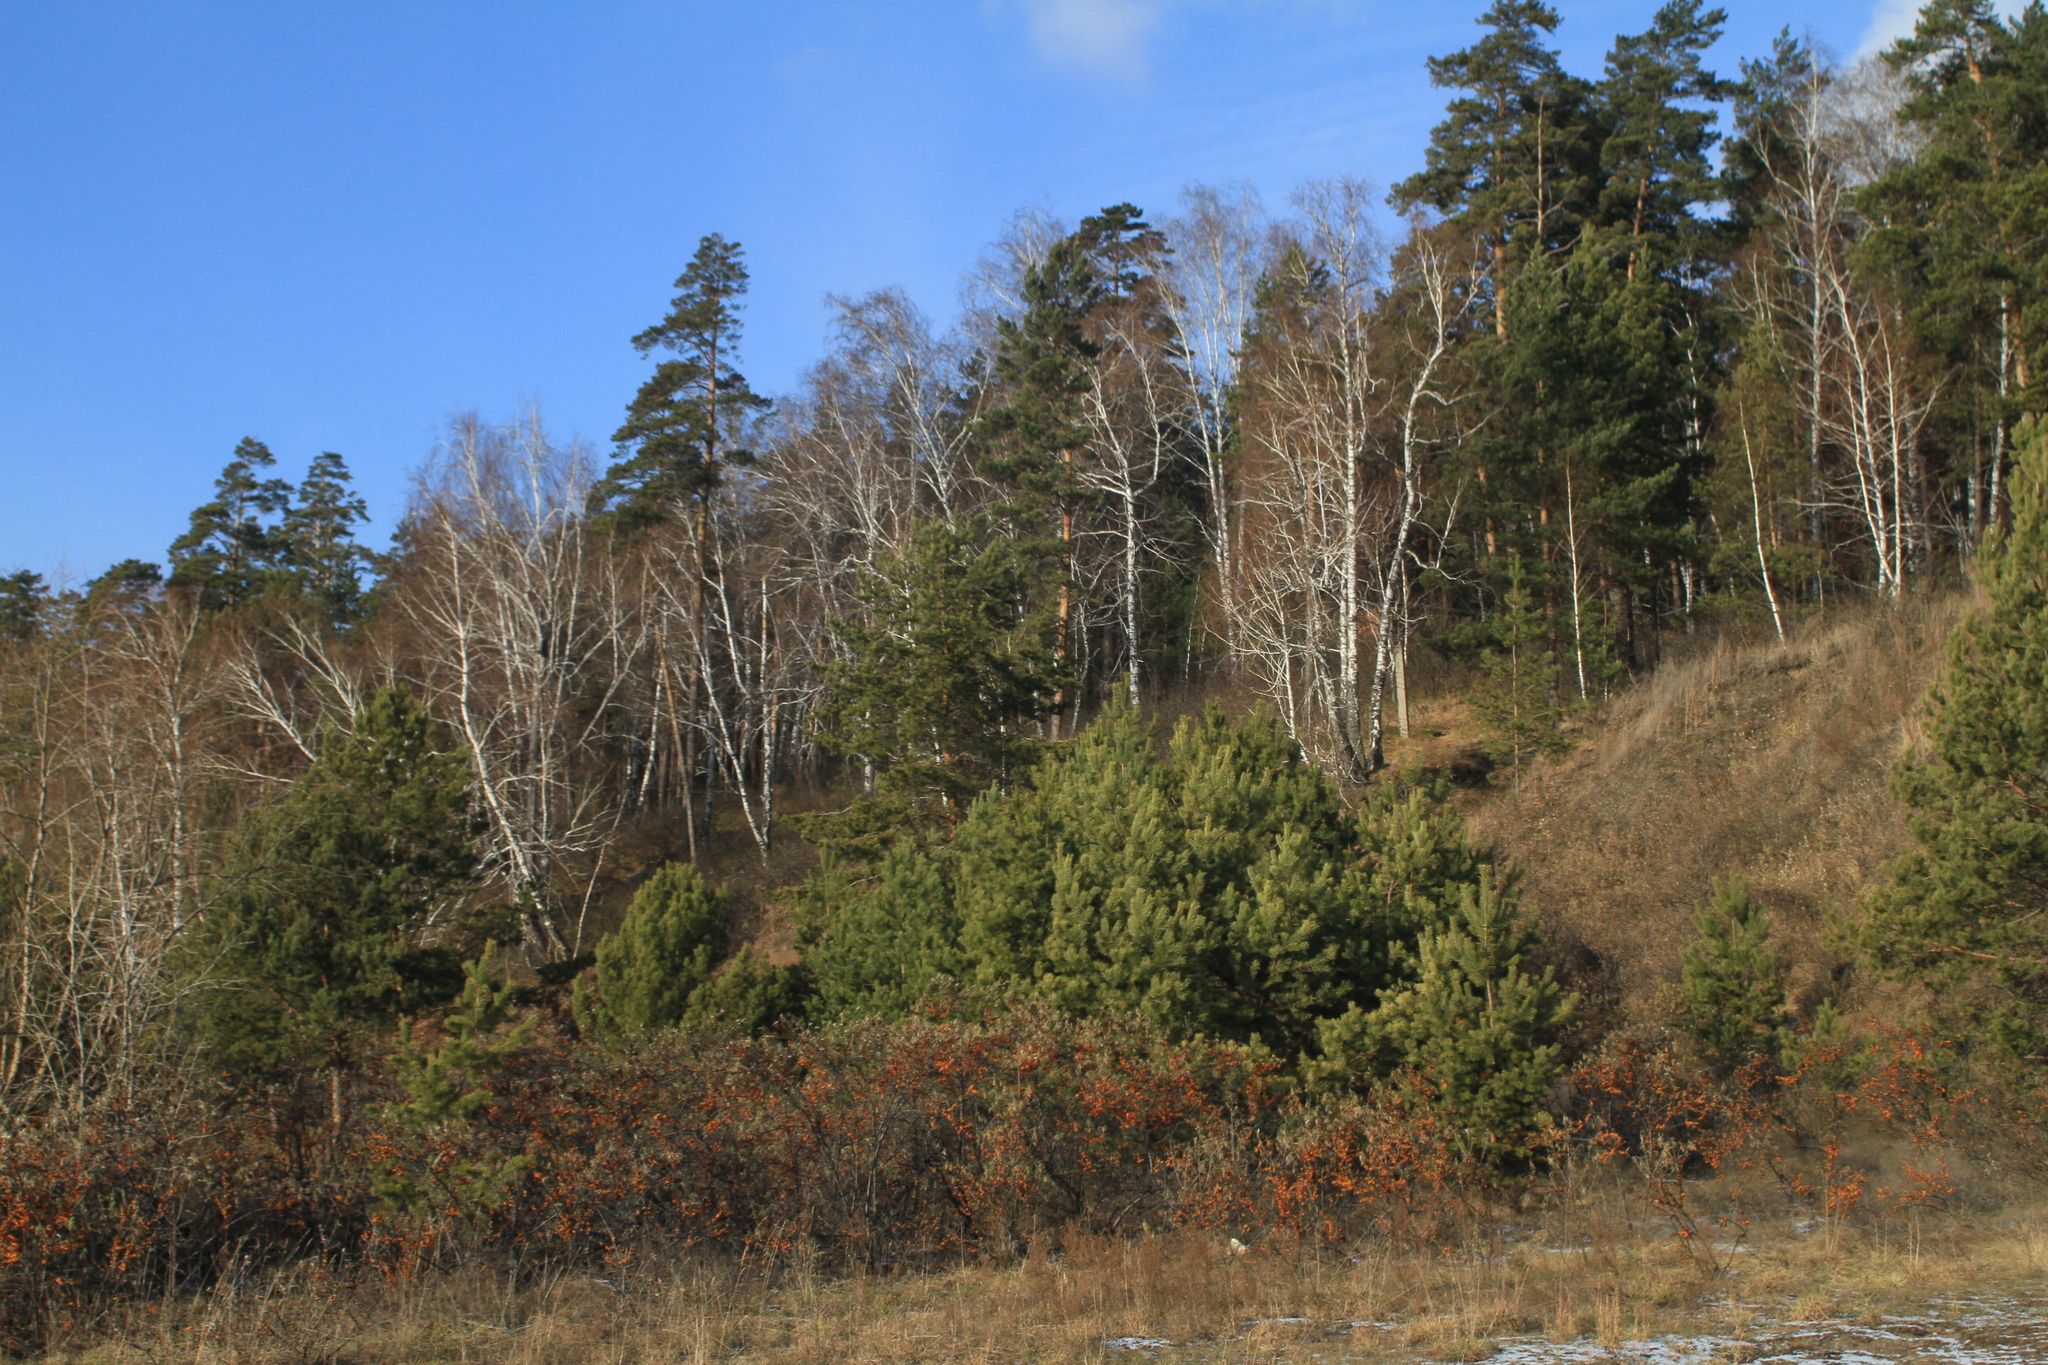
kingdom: Plantae
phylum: Tracheophyta
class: Pinopsida
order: Pinales
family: Pinaceae
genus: Pinus
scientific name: Pinus sylvestris
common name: Scots pine
